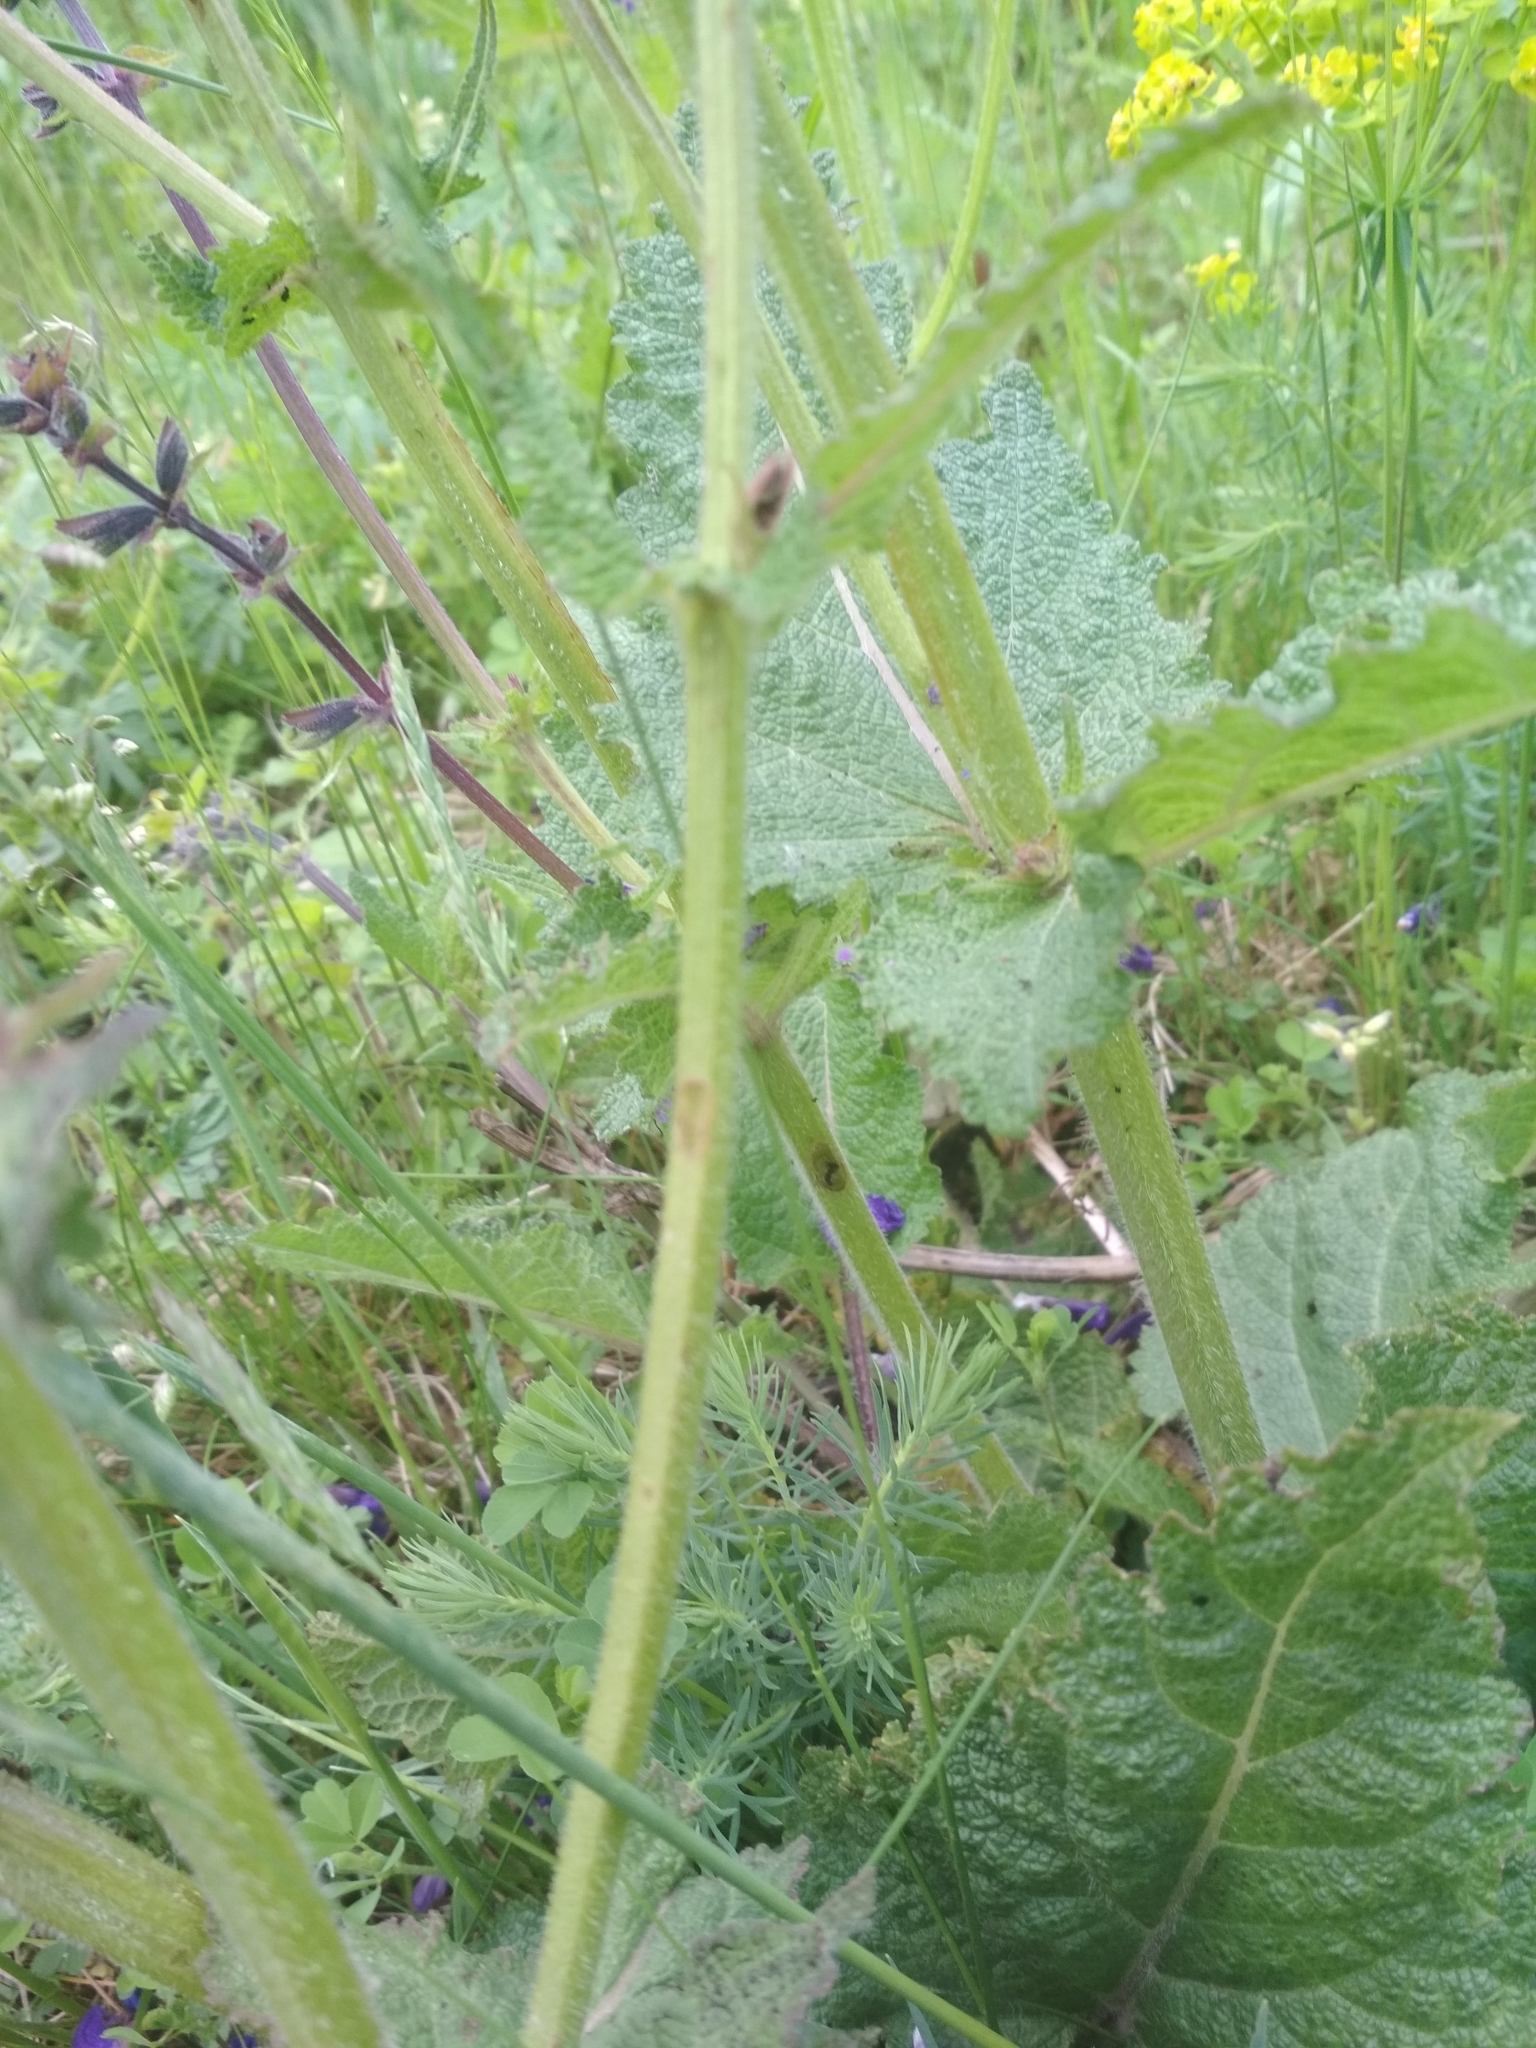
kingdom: Plantae
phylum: Tracheophyta
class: Magnoliopsida
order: Lamiales
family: Lamiaceae
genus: Salvia
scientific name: Salvia pratensis
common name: Meadow sage
